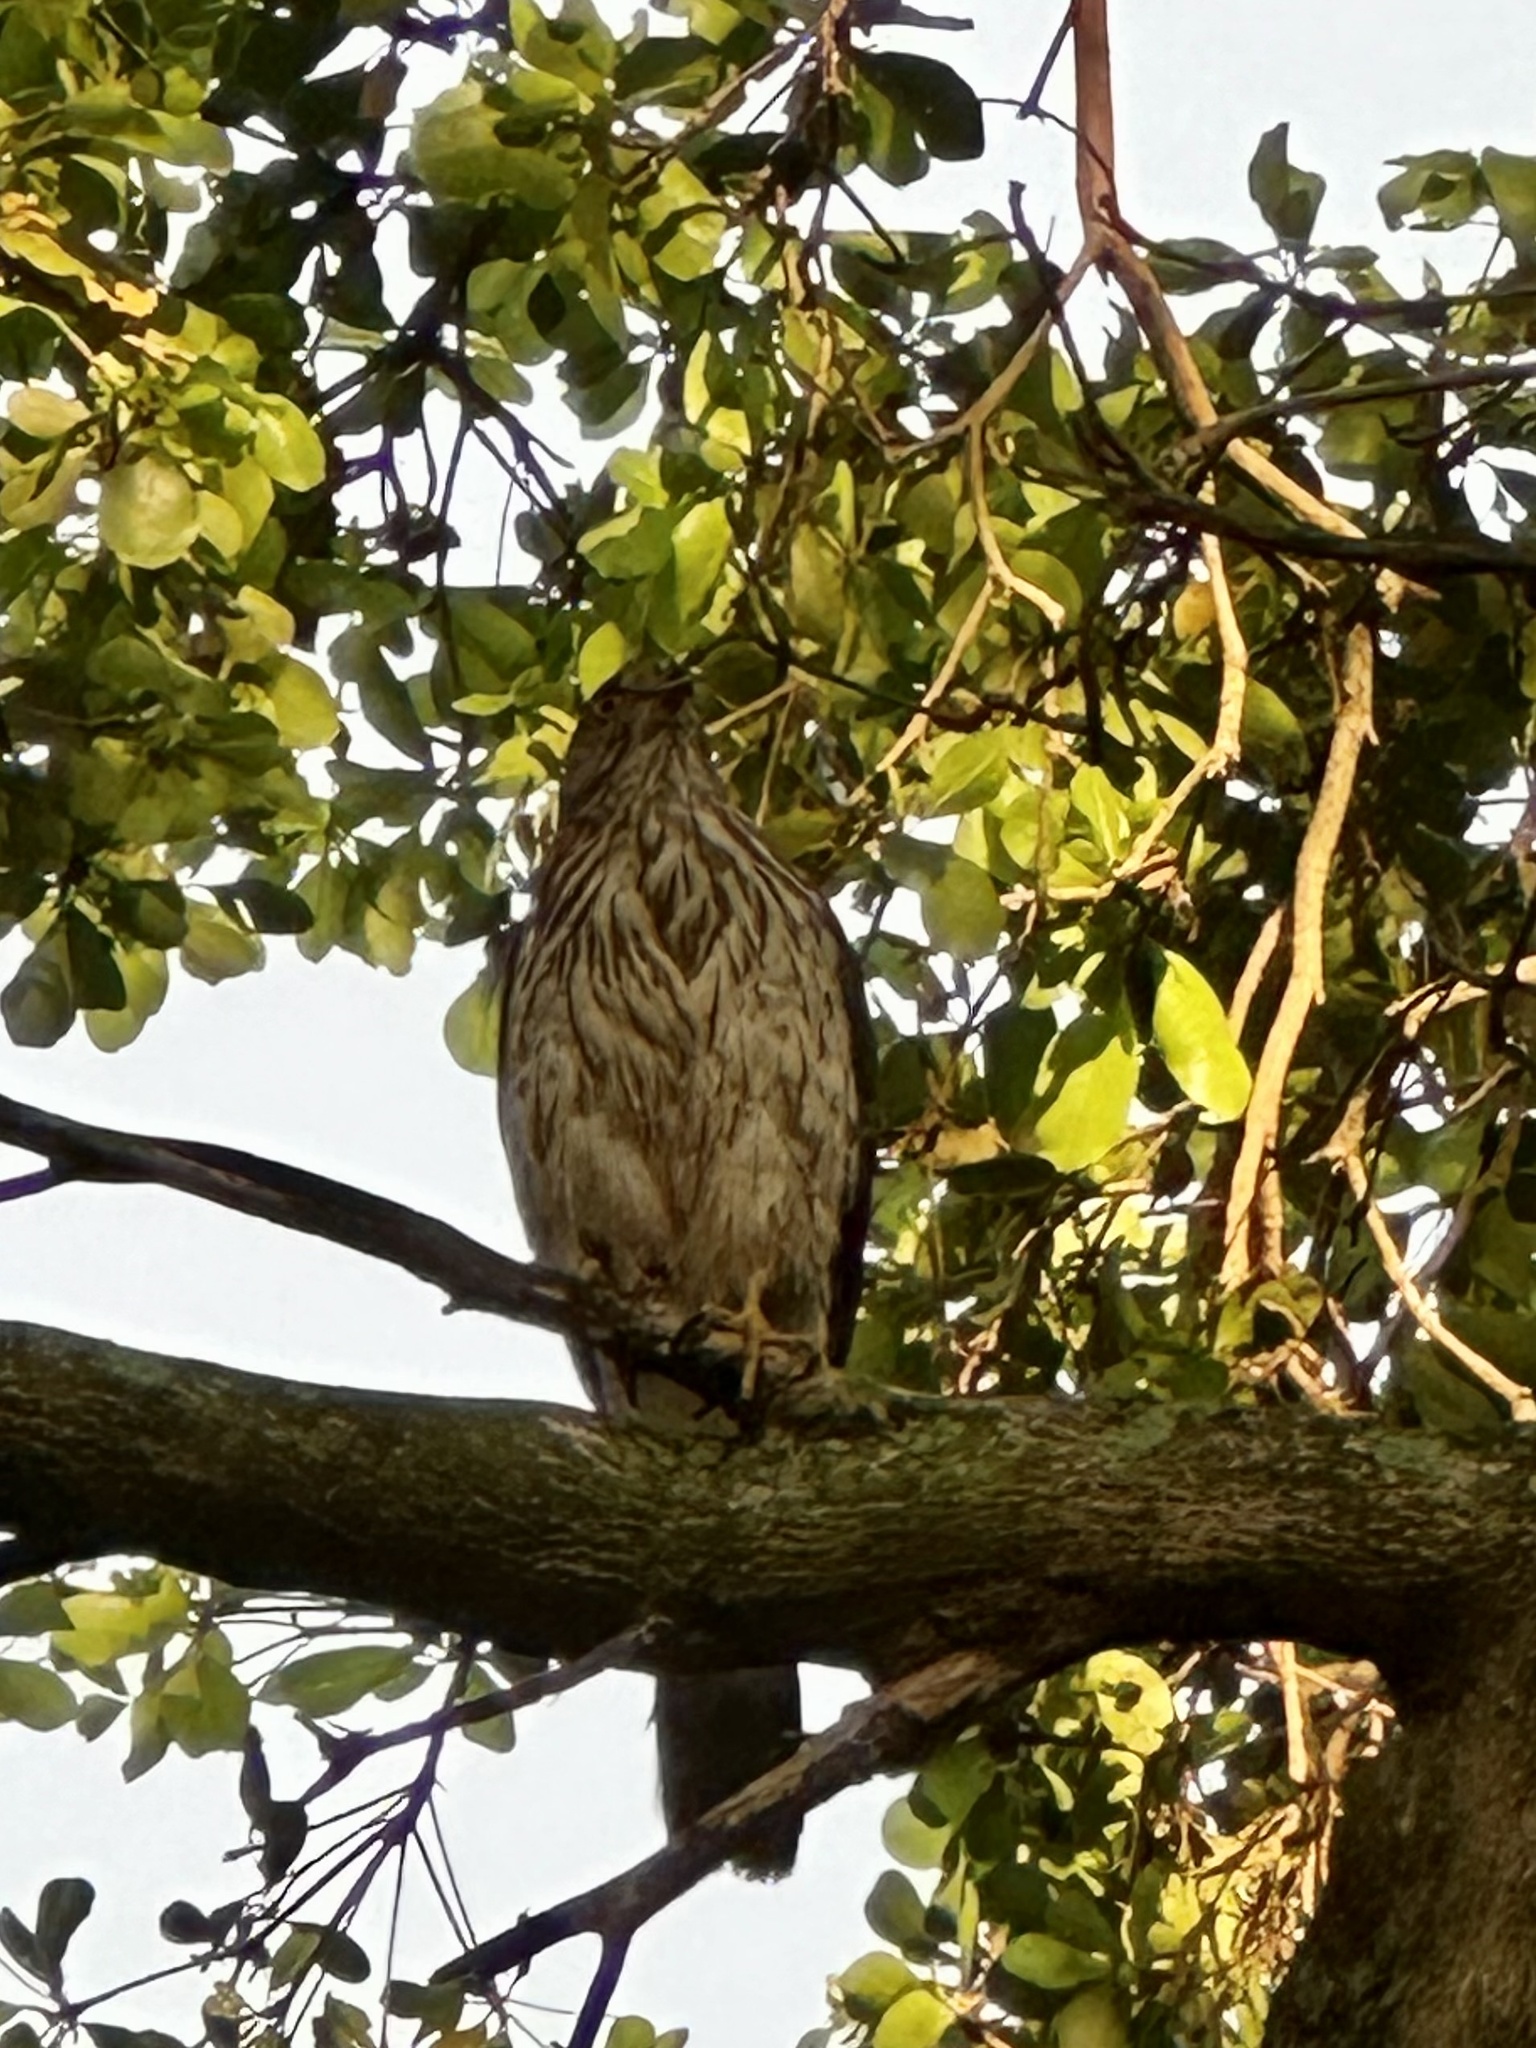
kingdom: Animalia
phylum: Chordata
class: Aves
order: Accipitriformes
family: Accipitridae
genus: Accipiter
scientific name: Accipiter cooperii
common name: Cooper's hawk
